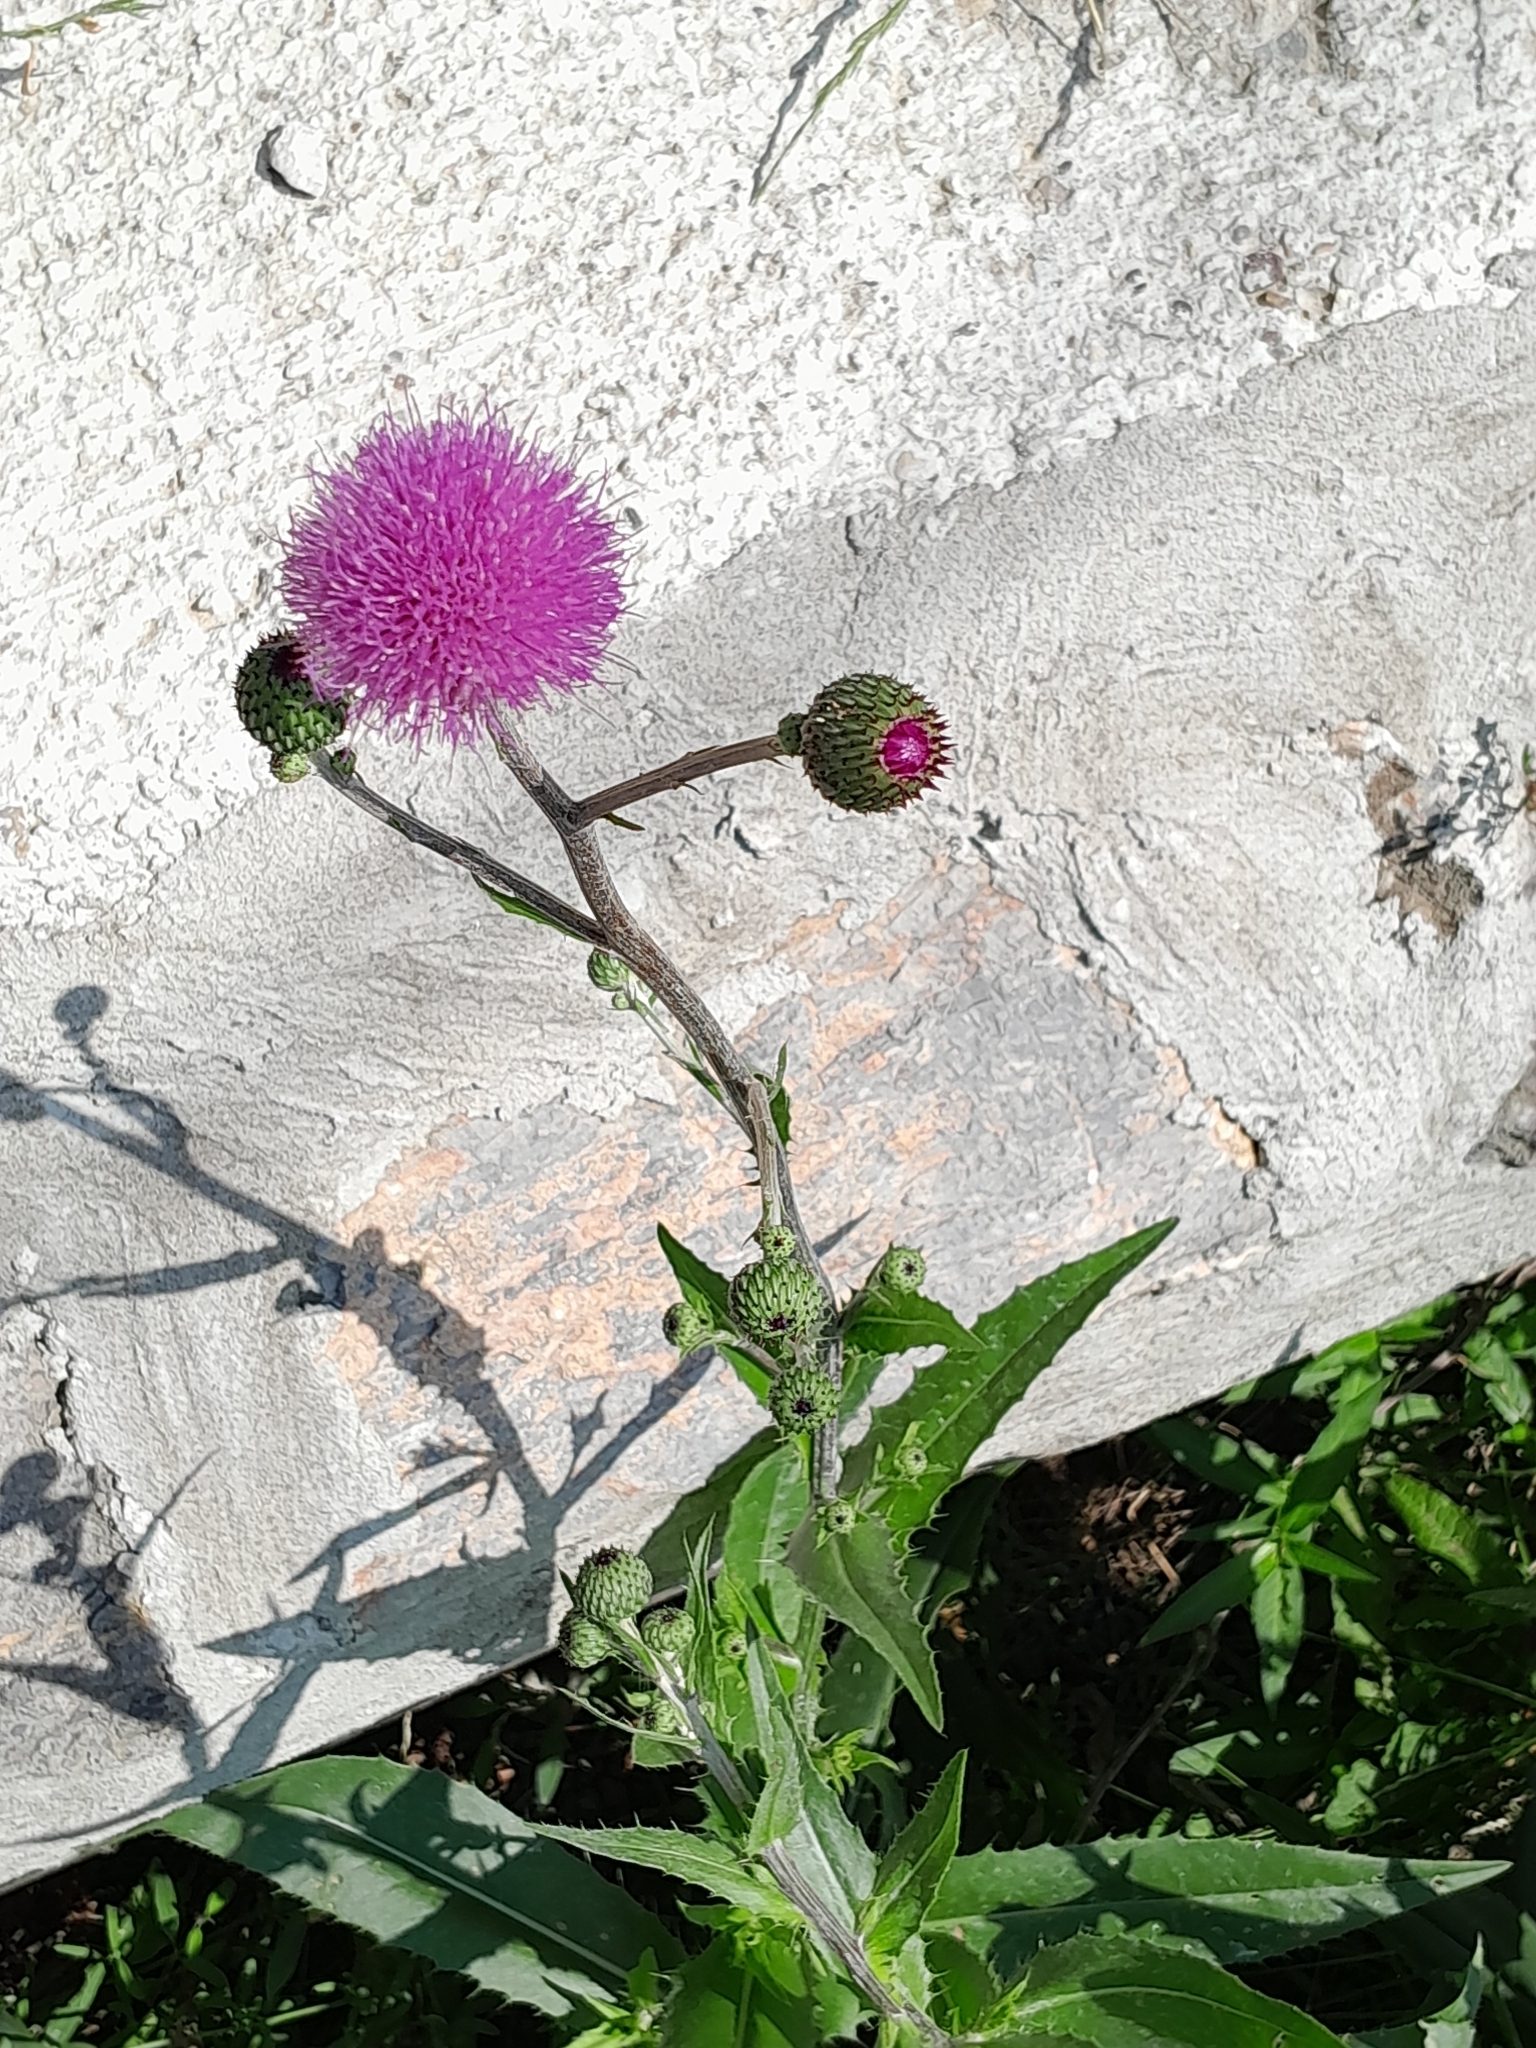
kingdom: Plantae
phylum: Tracheophyta
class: Magnoliopsida
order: Asterales
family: Asteraceae
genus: Cirsium
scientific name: Cirsium canum
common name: Queen anne's thistle
